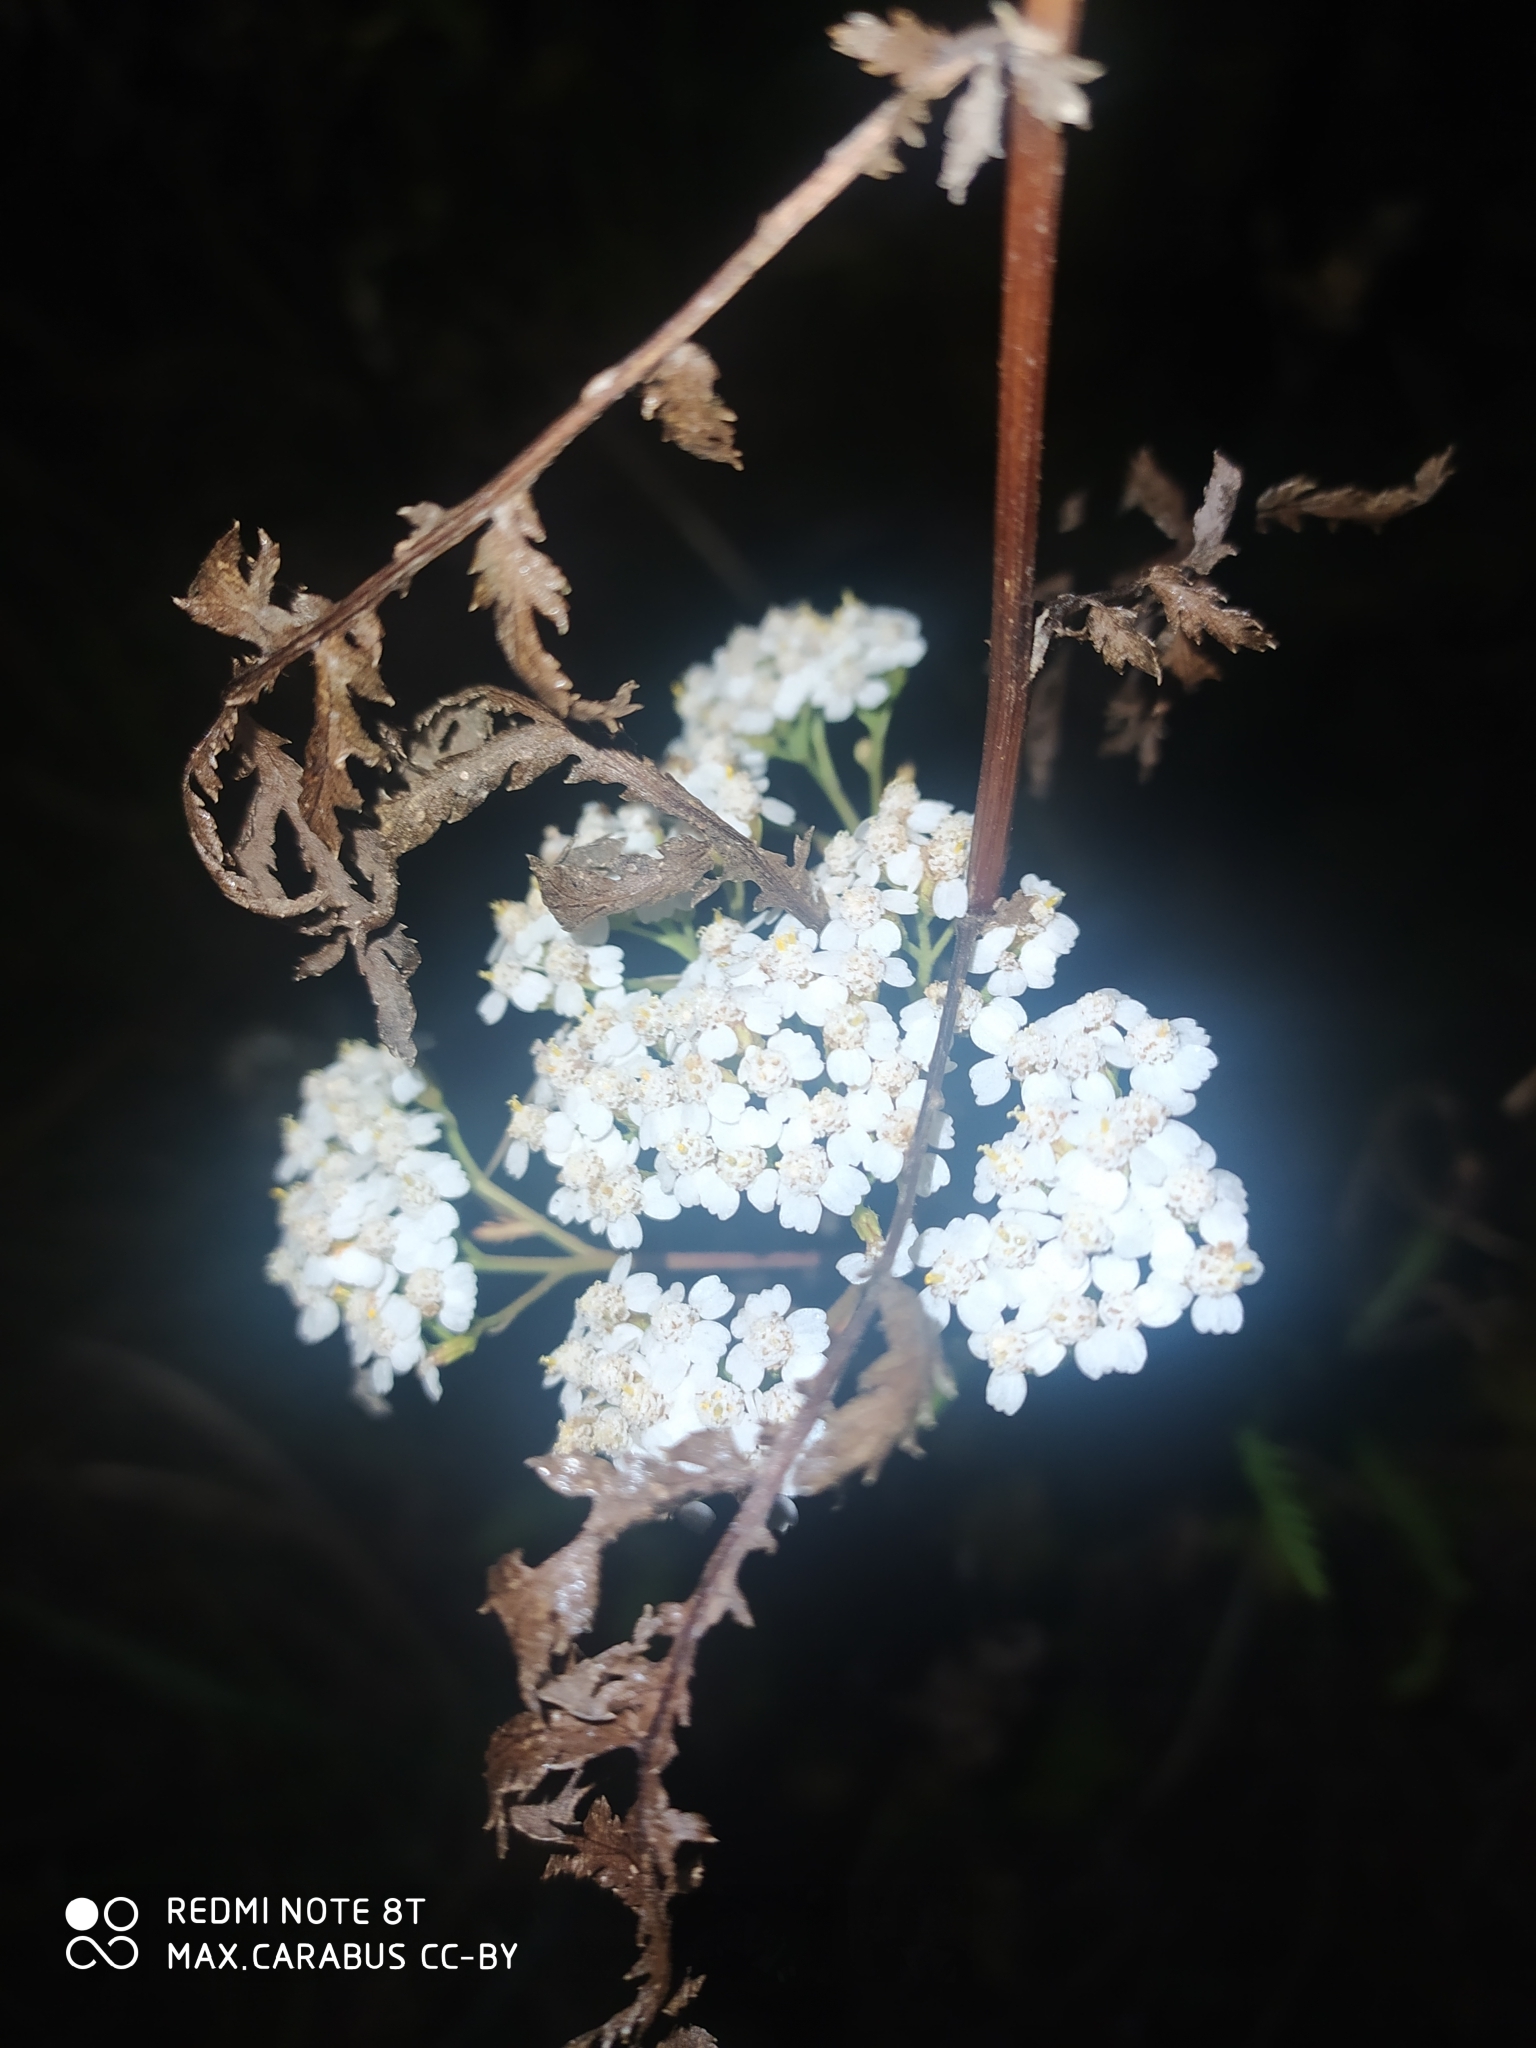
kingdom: Plantae
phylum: Tracheophyta
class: Magnoliopsida
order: Asterales
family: Asteraceae
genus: Achillea
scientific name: Achillea millefolium
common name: Yarrow
